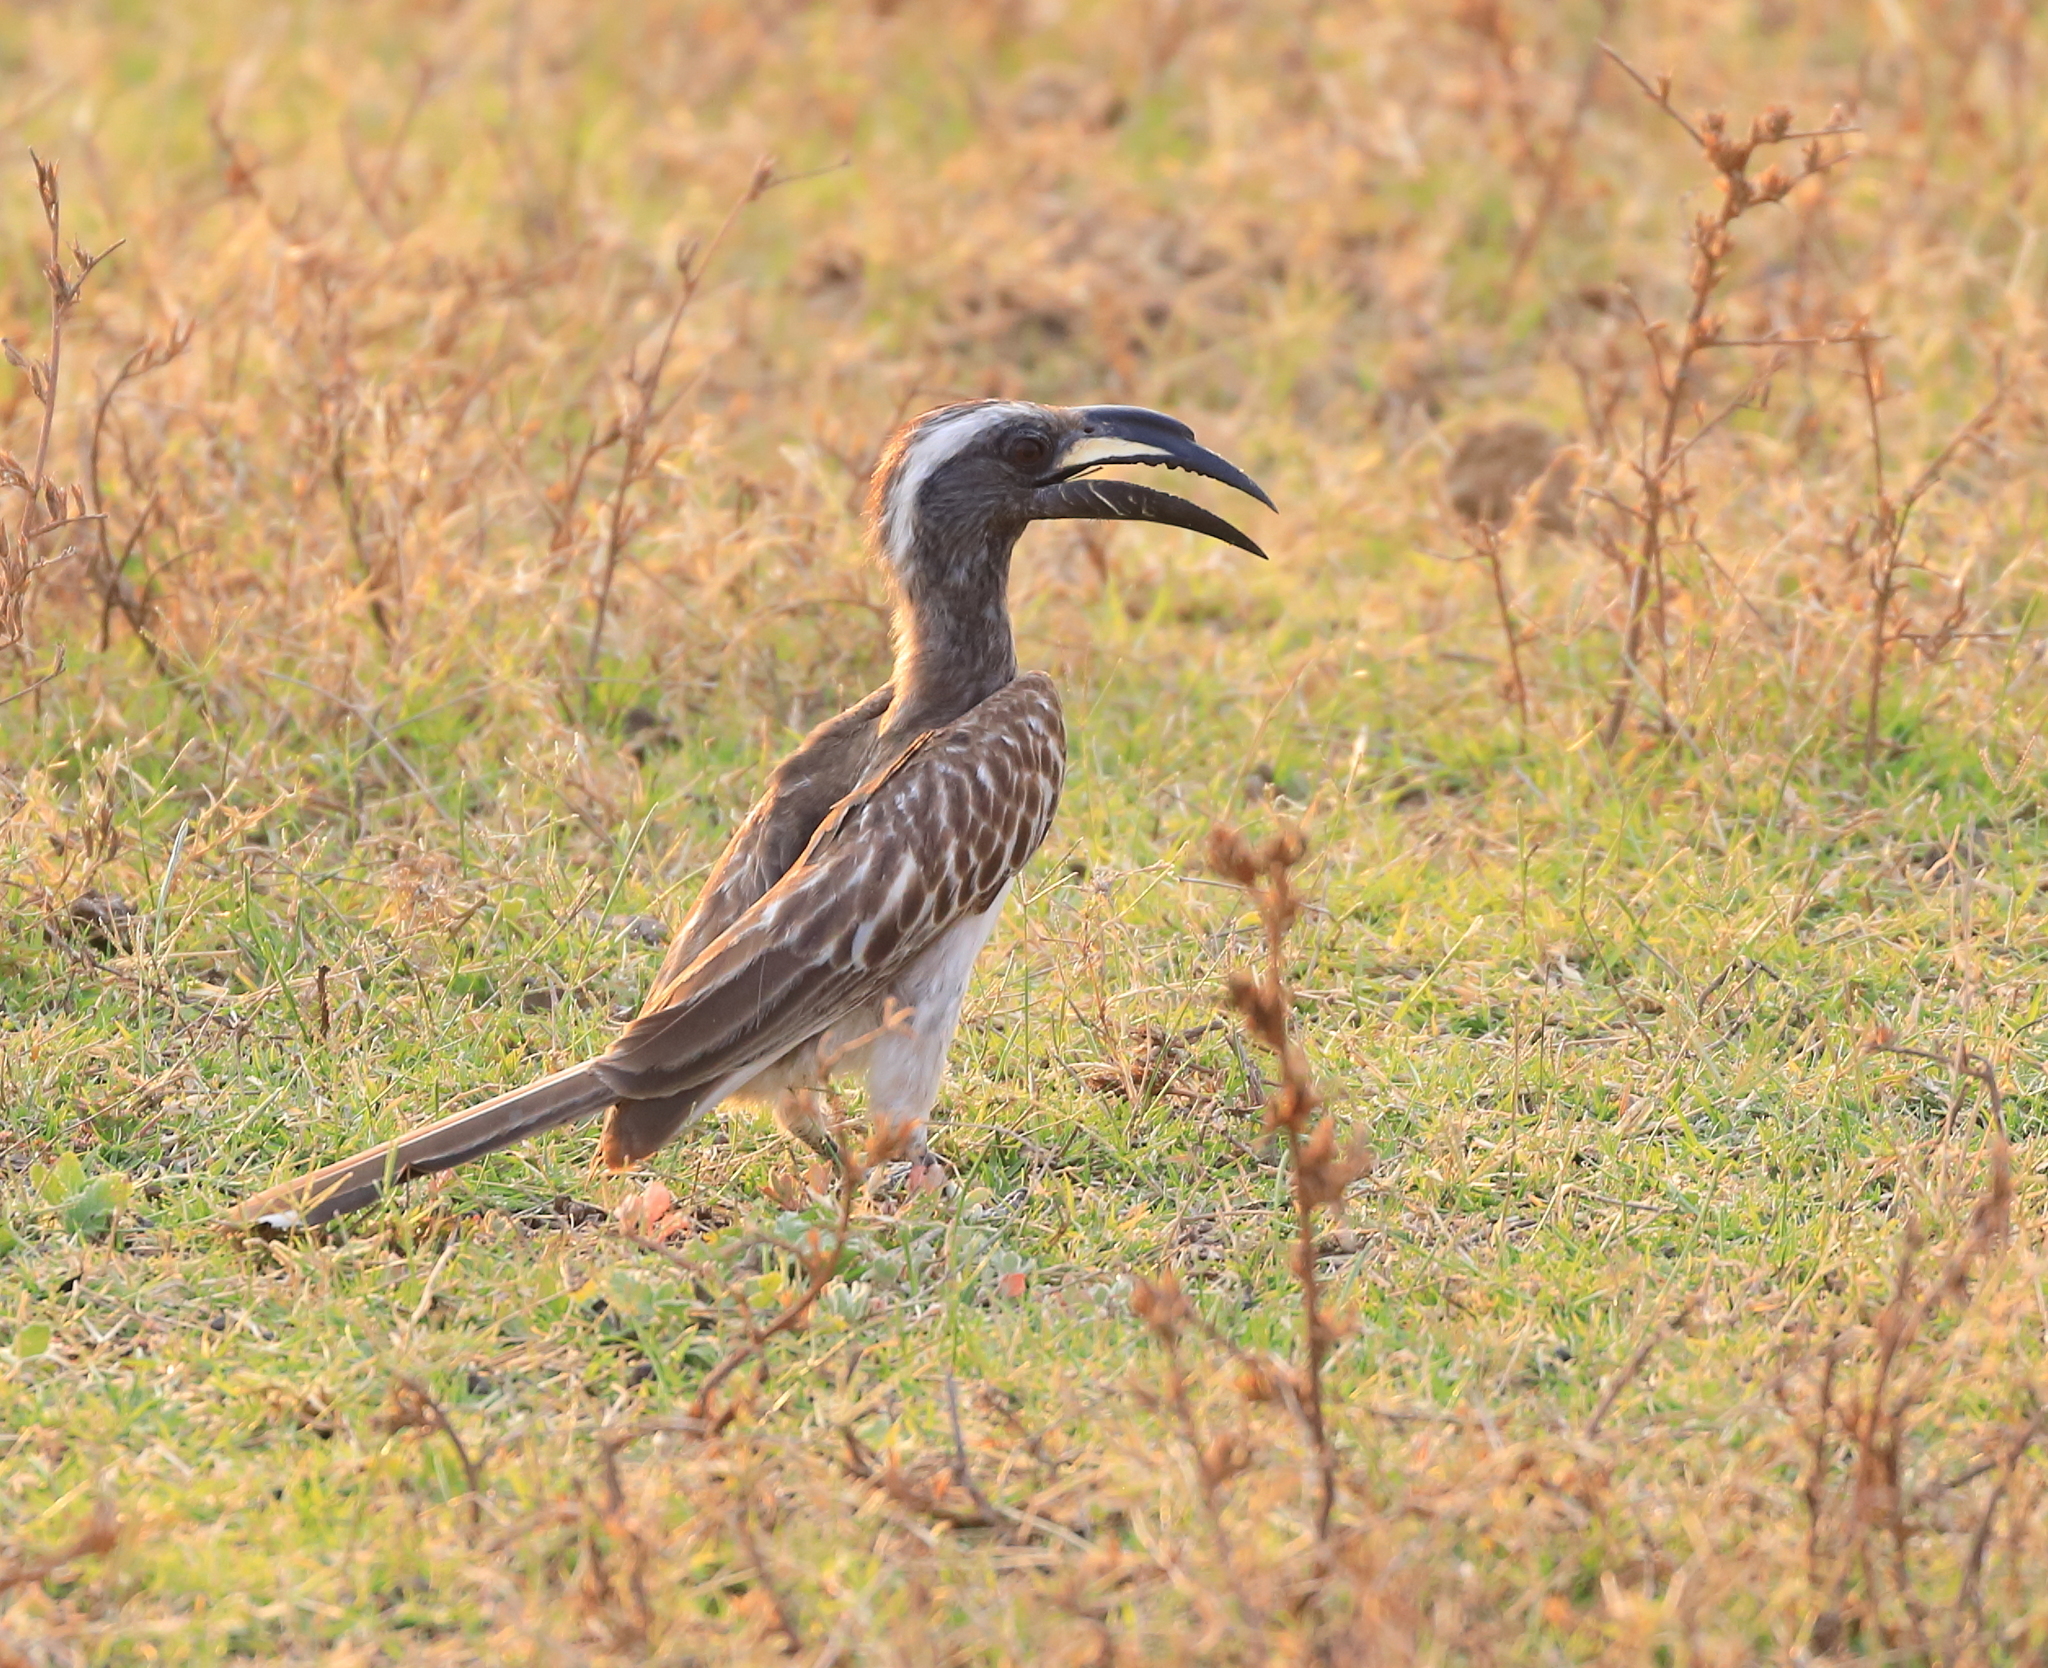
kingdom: Animalia
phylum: Chordata
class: Aves
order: Bucerotiformes
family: Bucerotidae
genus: Lophoceros
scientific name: Lophoceros nasutus
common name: African grey hornbill
